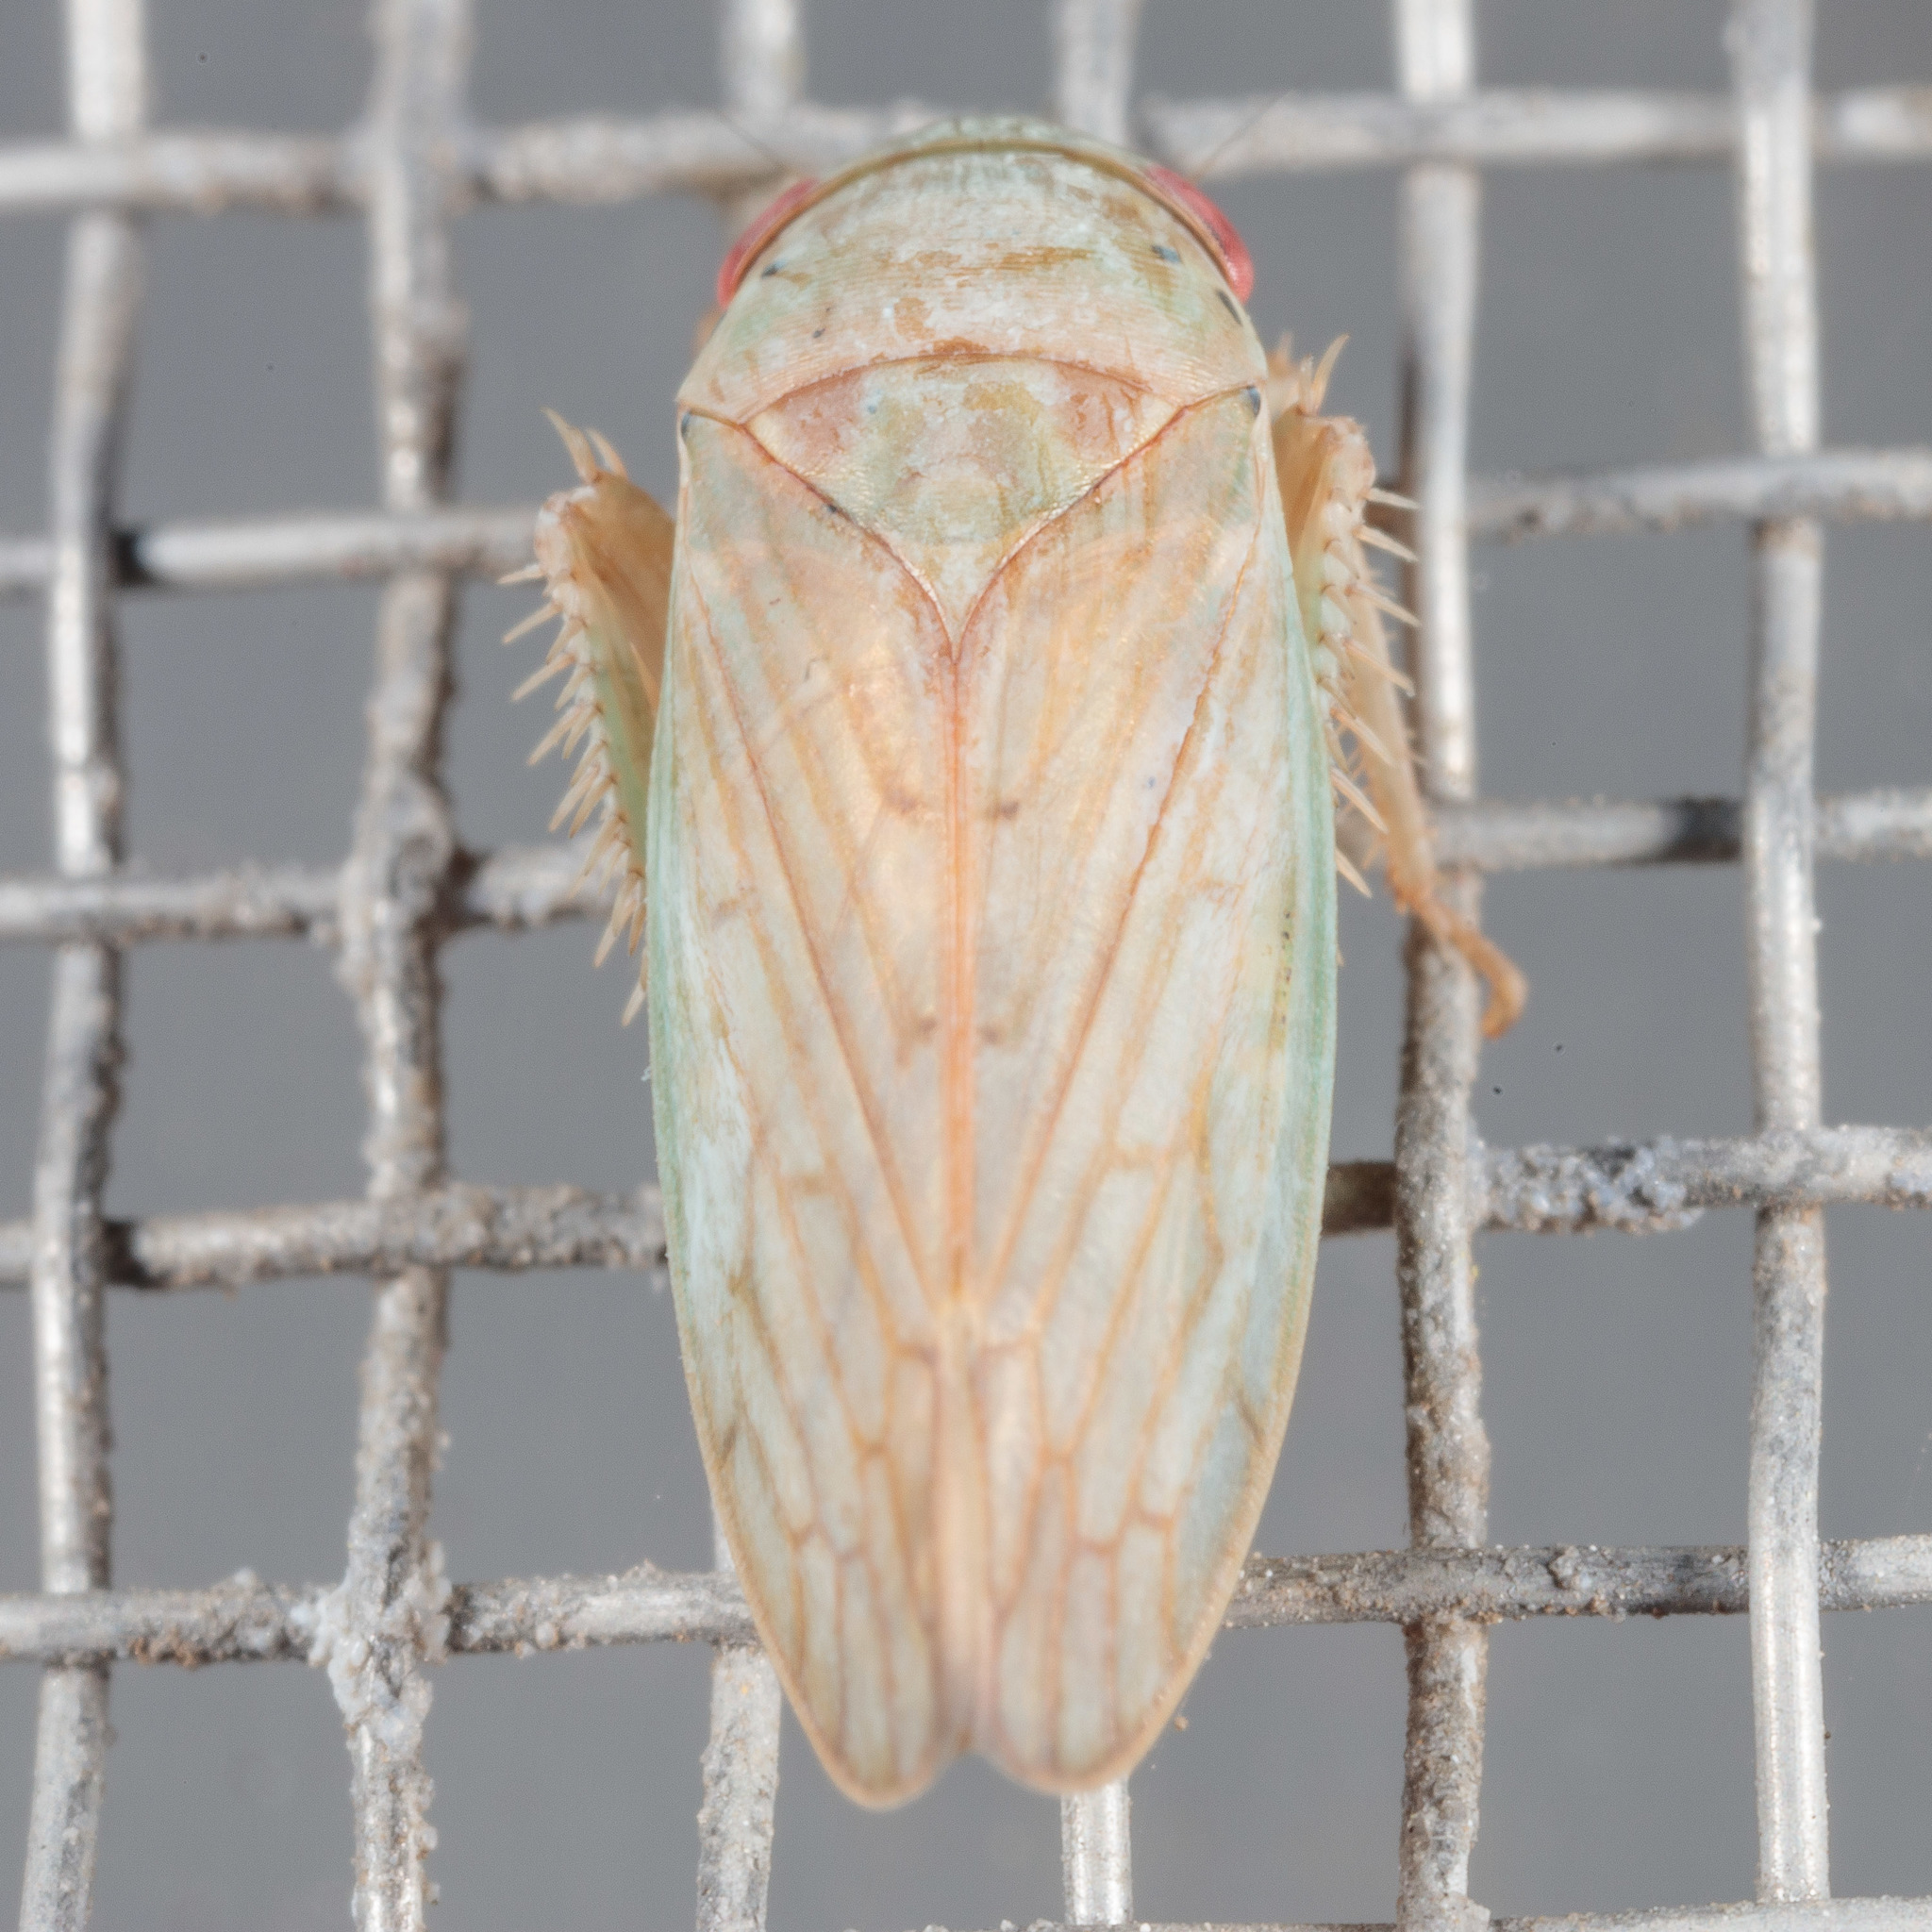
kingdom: Animalia
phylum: Arthropoda
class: Insecta
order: Hemiptera
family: Cicadellidae
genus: Polana
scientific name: Polana quadrinotata
